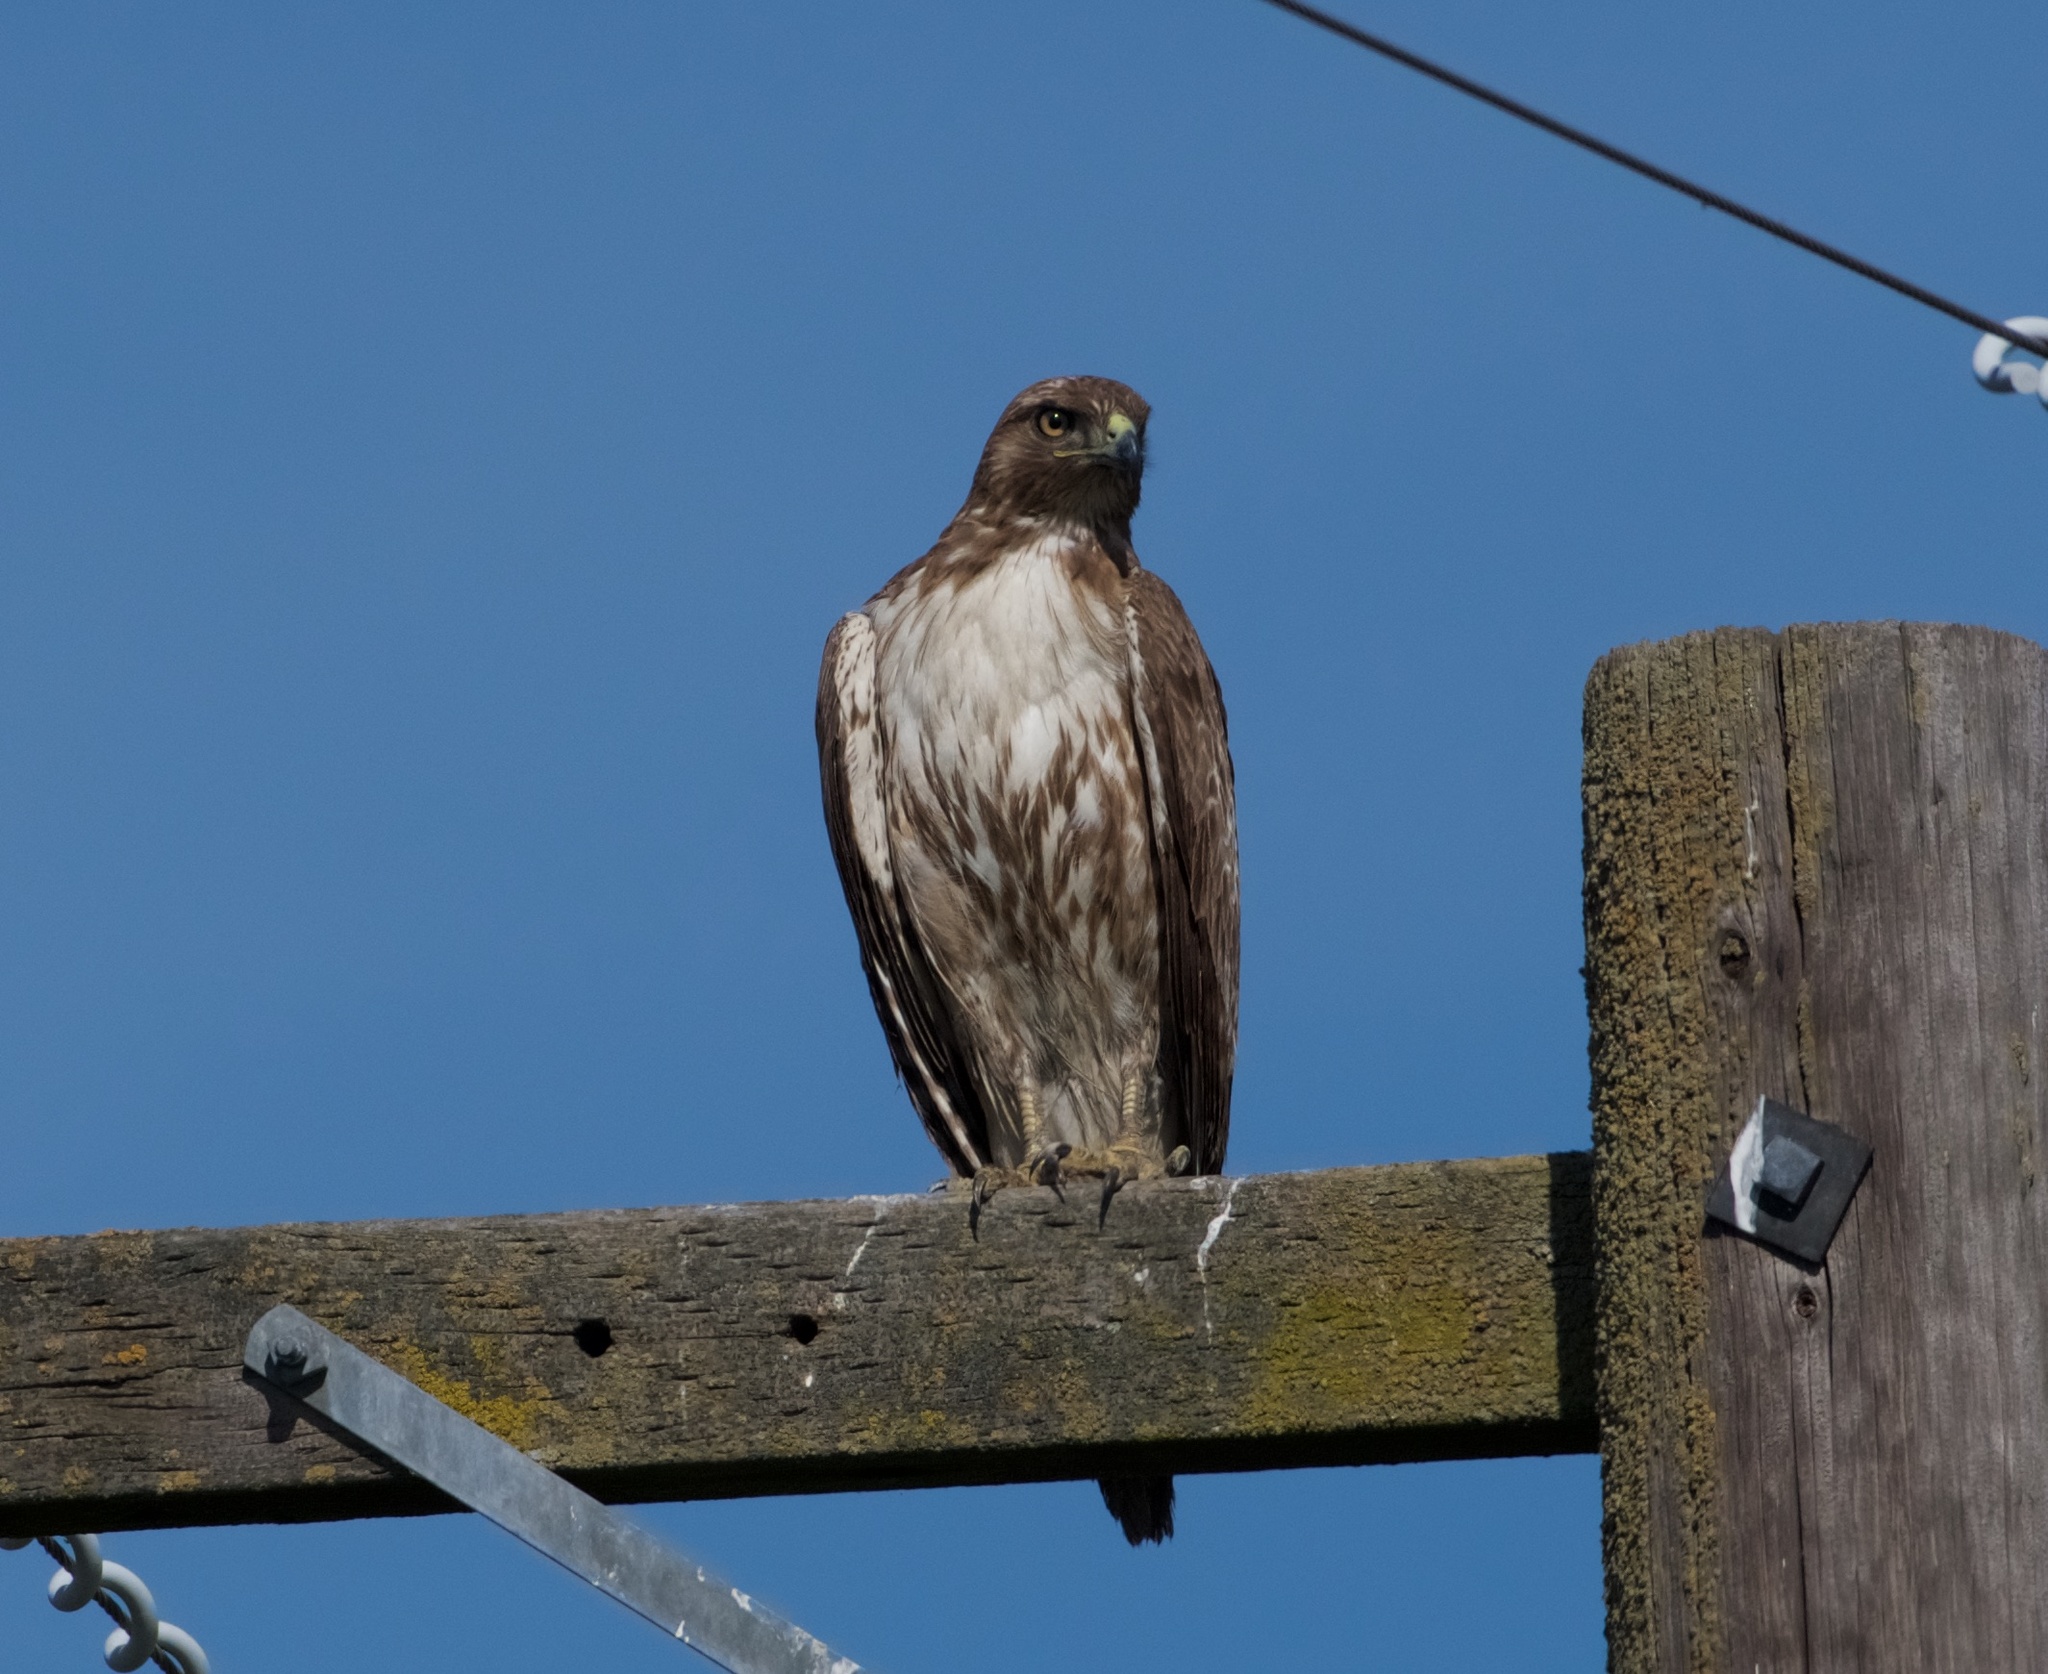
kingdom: Animalia
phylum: Chordata
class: Aves
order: Accipitriformes
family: Accipitridae
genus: Buteo
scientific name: Buteo jamaicensis
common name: Red-tailed hawk
